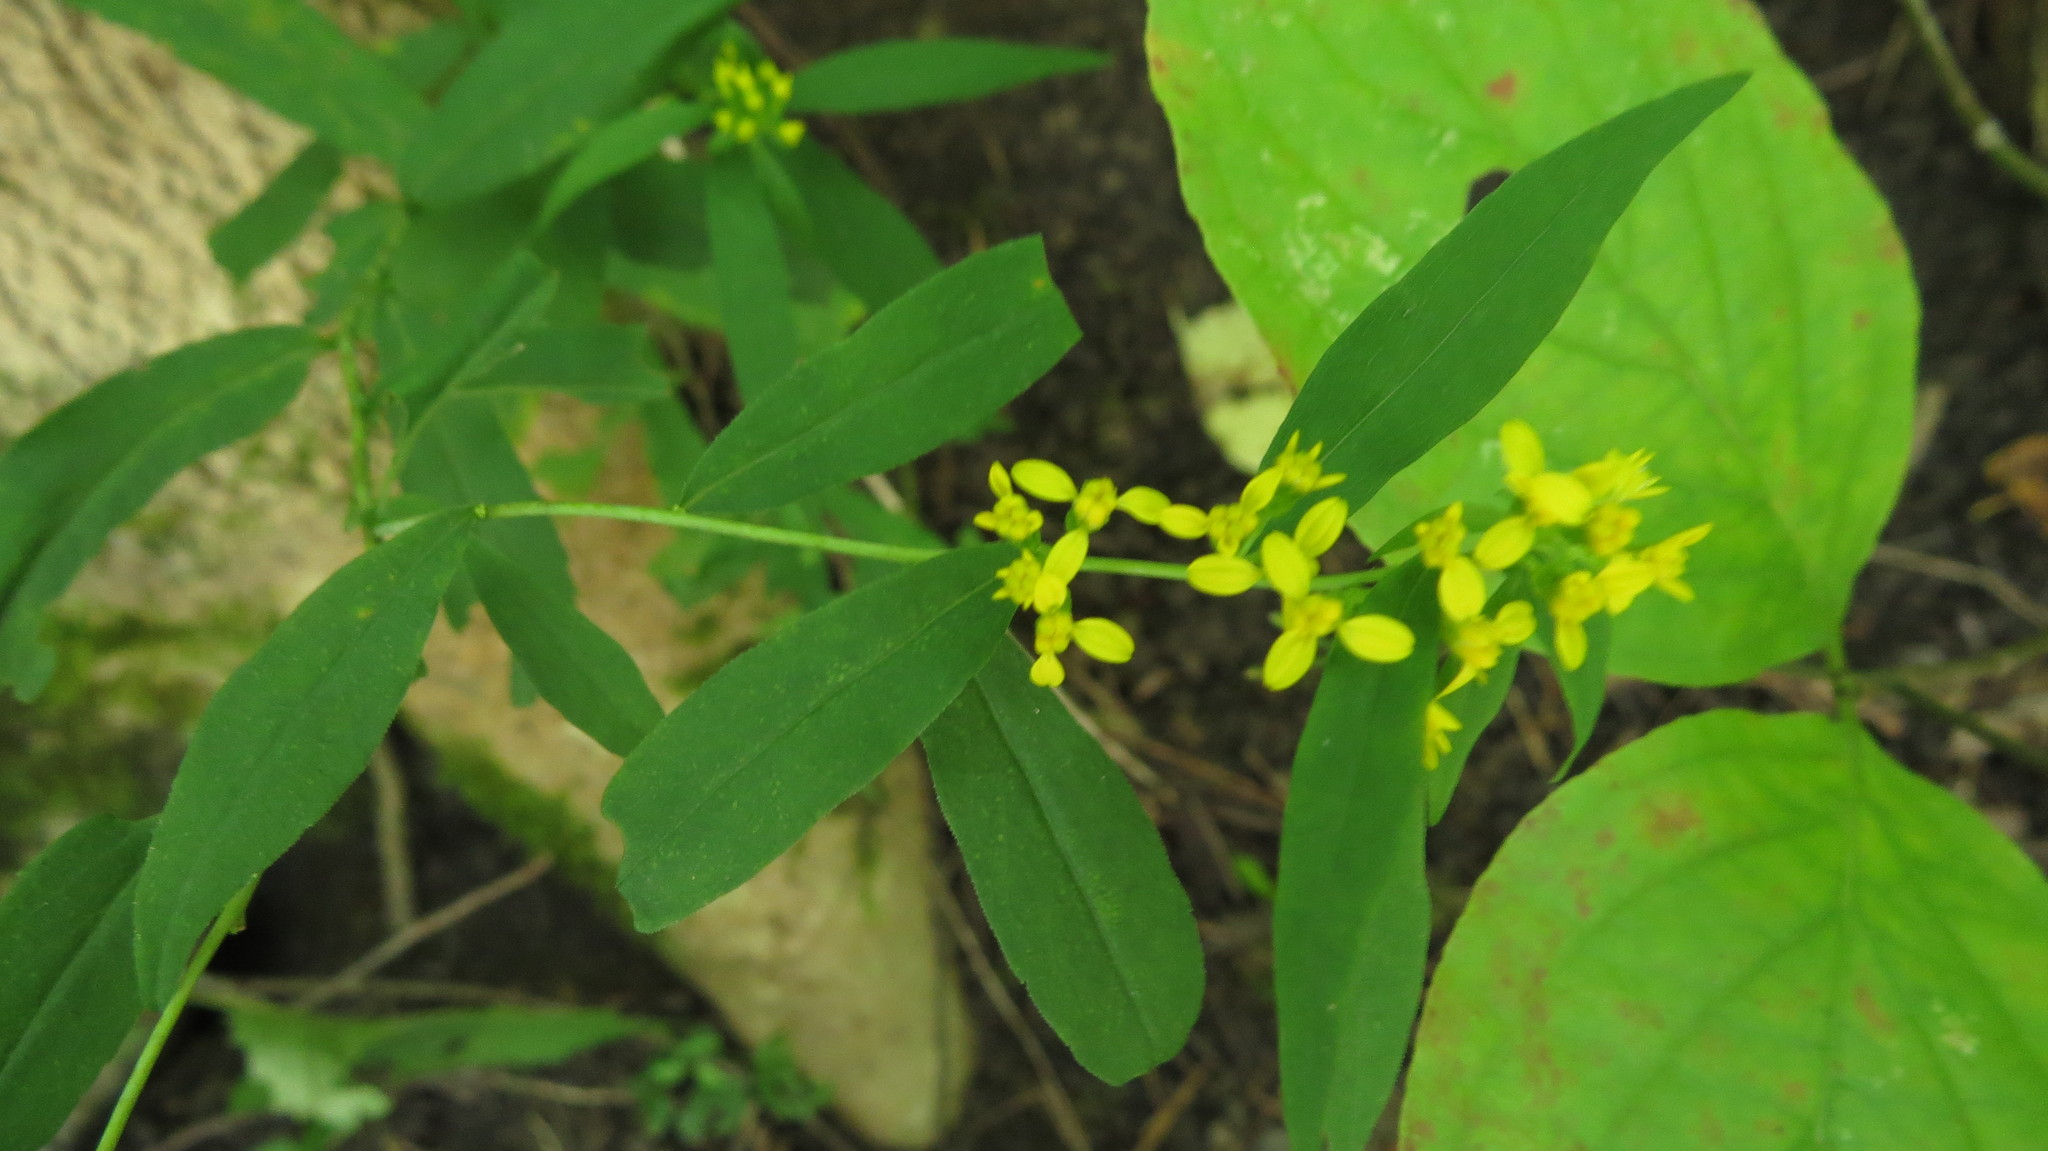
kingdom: Plantae
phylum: Tracheophyta
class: Magnoliopsida
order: Asterales
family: Asteraceae
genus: Solidago
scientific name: Solidago caesia
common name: Woodland goldenrod
